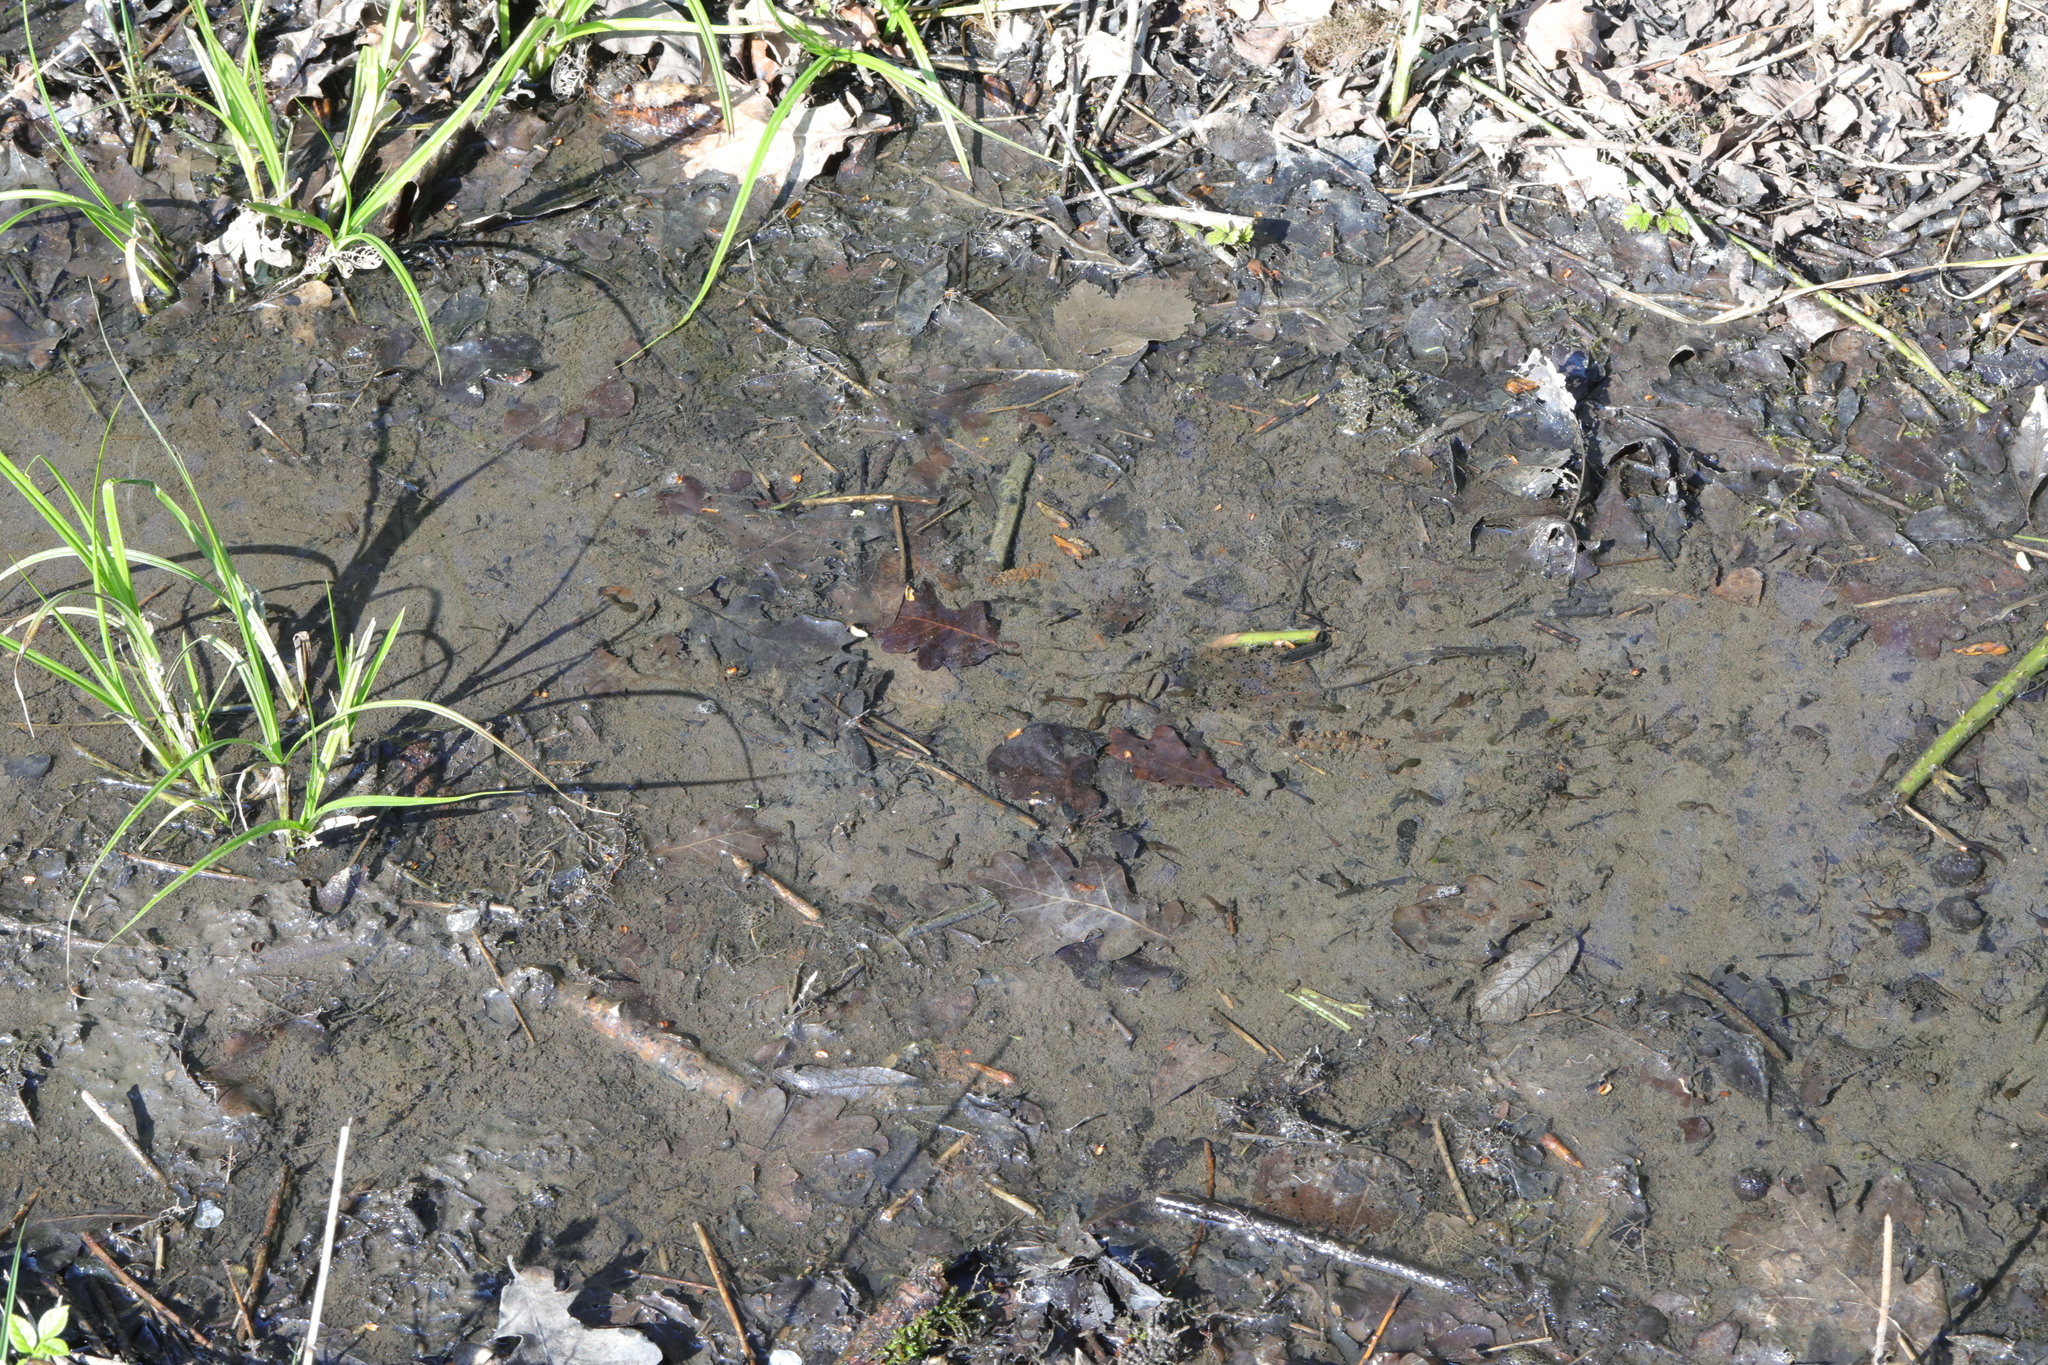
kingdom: Animalia
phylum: Chordata
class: Amphibia
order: Anura
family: Ranidae
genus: Rana
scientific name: Rana temporaria
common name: Common frog
